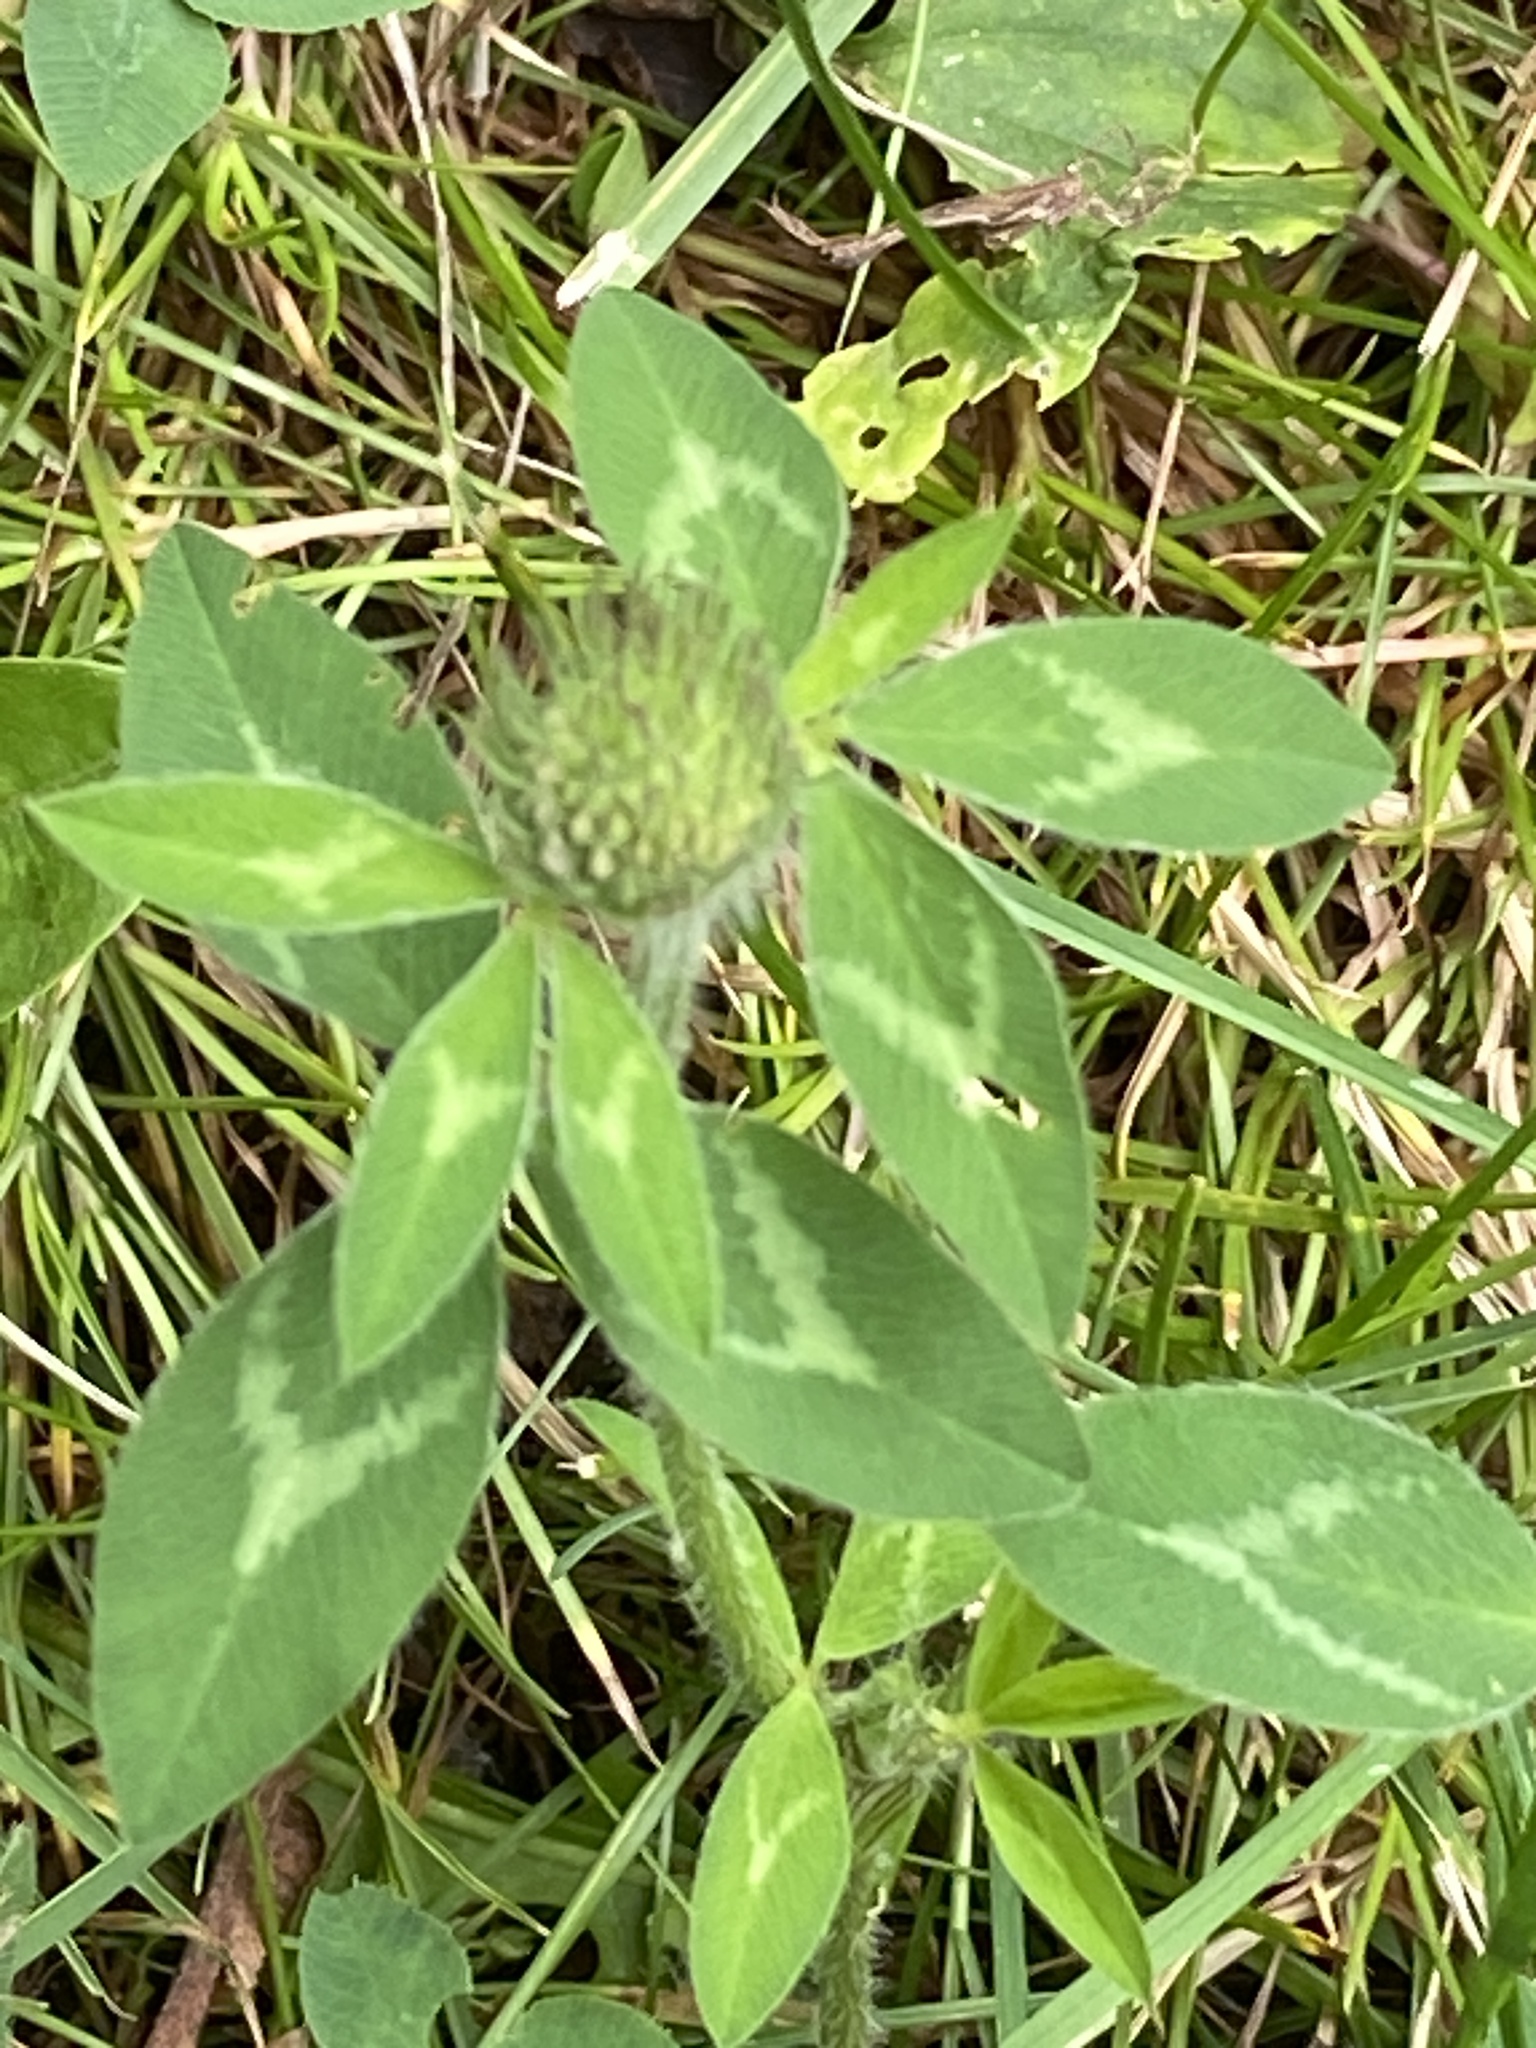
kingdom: Plantae
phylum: Tracheophyta
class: Magnoliopsida
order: Fabales
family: Fabaceae
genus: Trifolium
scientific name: Trifolium pratense
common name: Red clover
